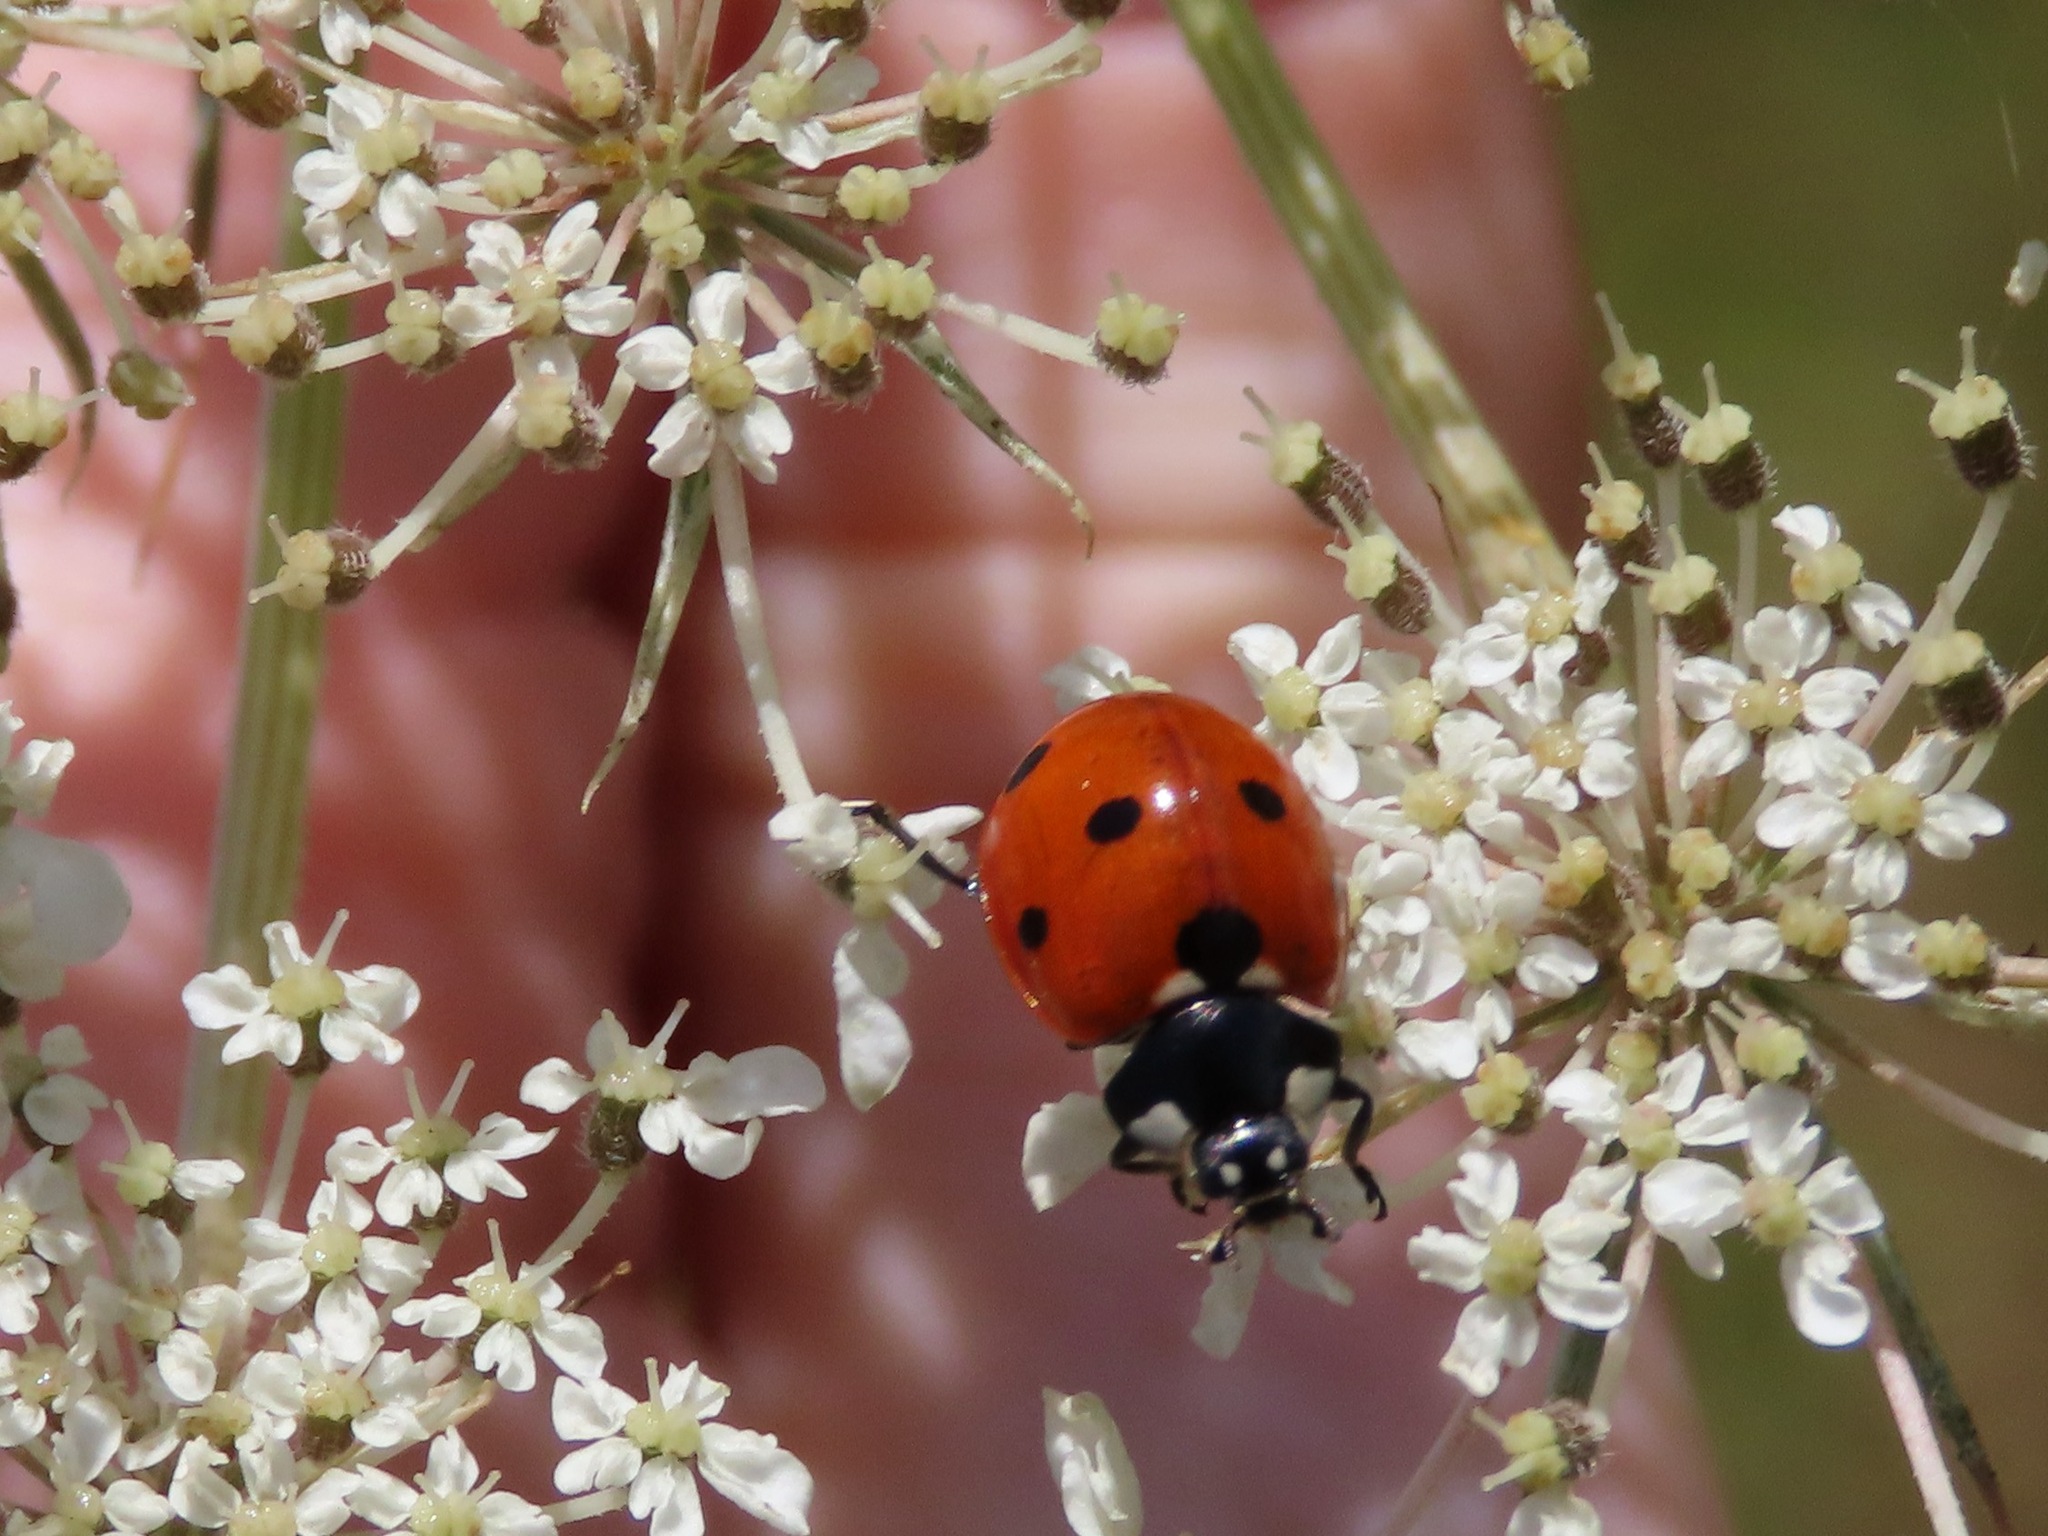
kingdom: Animalia
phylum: Arthropoda
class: Insecta
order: Coleoptera
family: Coccinellidae
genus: Coccinella
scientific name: Coccinella septempunctata
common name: Sevenspotted lady beetle
